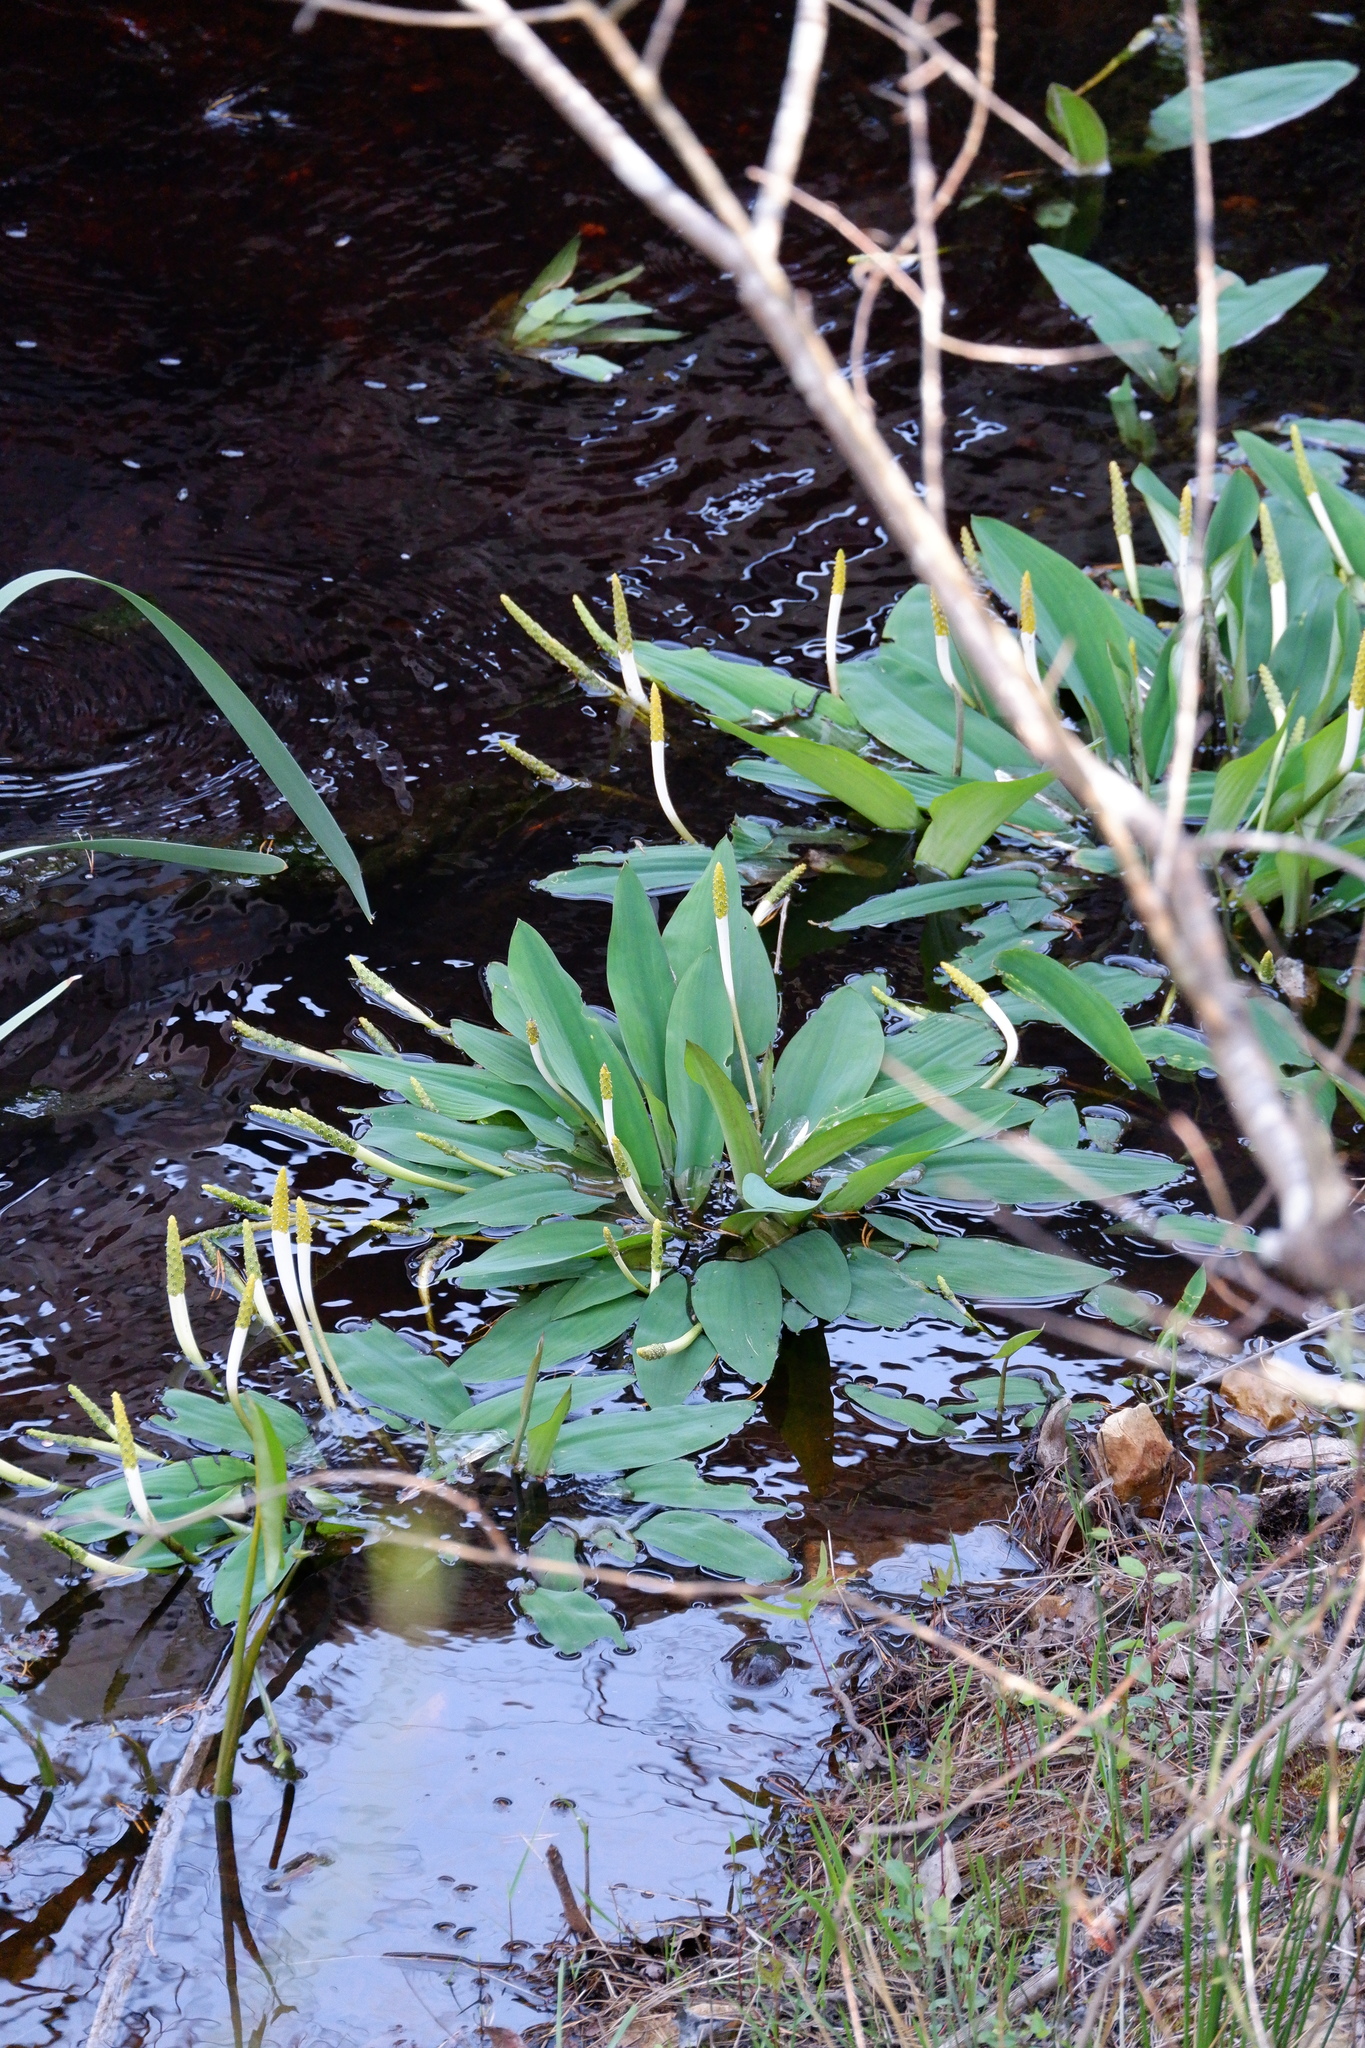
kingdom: Plantae
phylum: Tracheophyta
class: Liliopsida
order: Alismatales
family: Araceae
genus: Orontium
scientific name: Orontium aquaticum
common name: Golden-club
